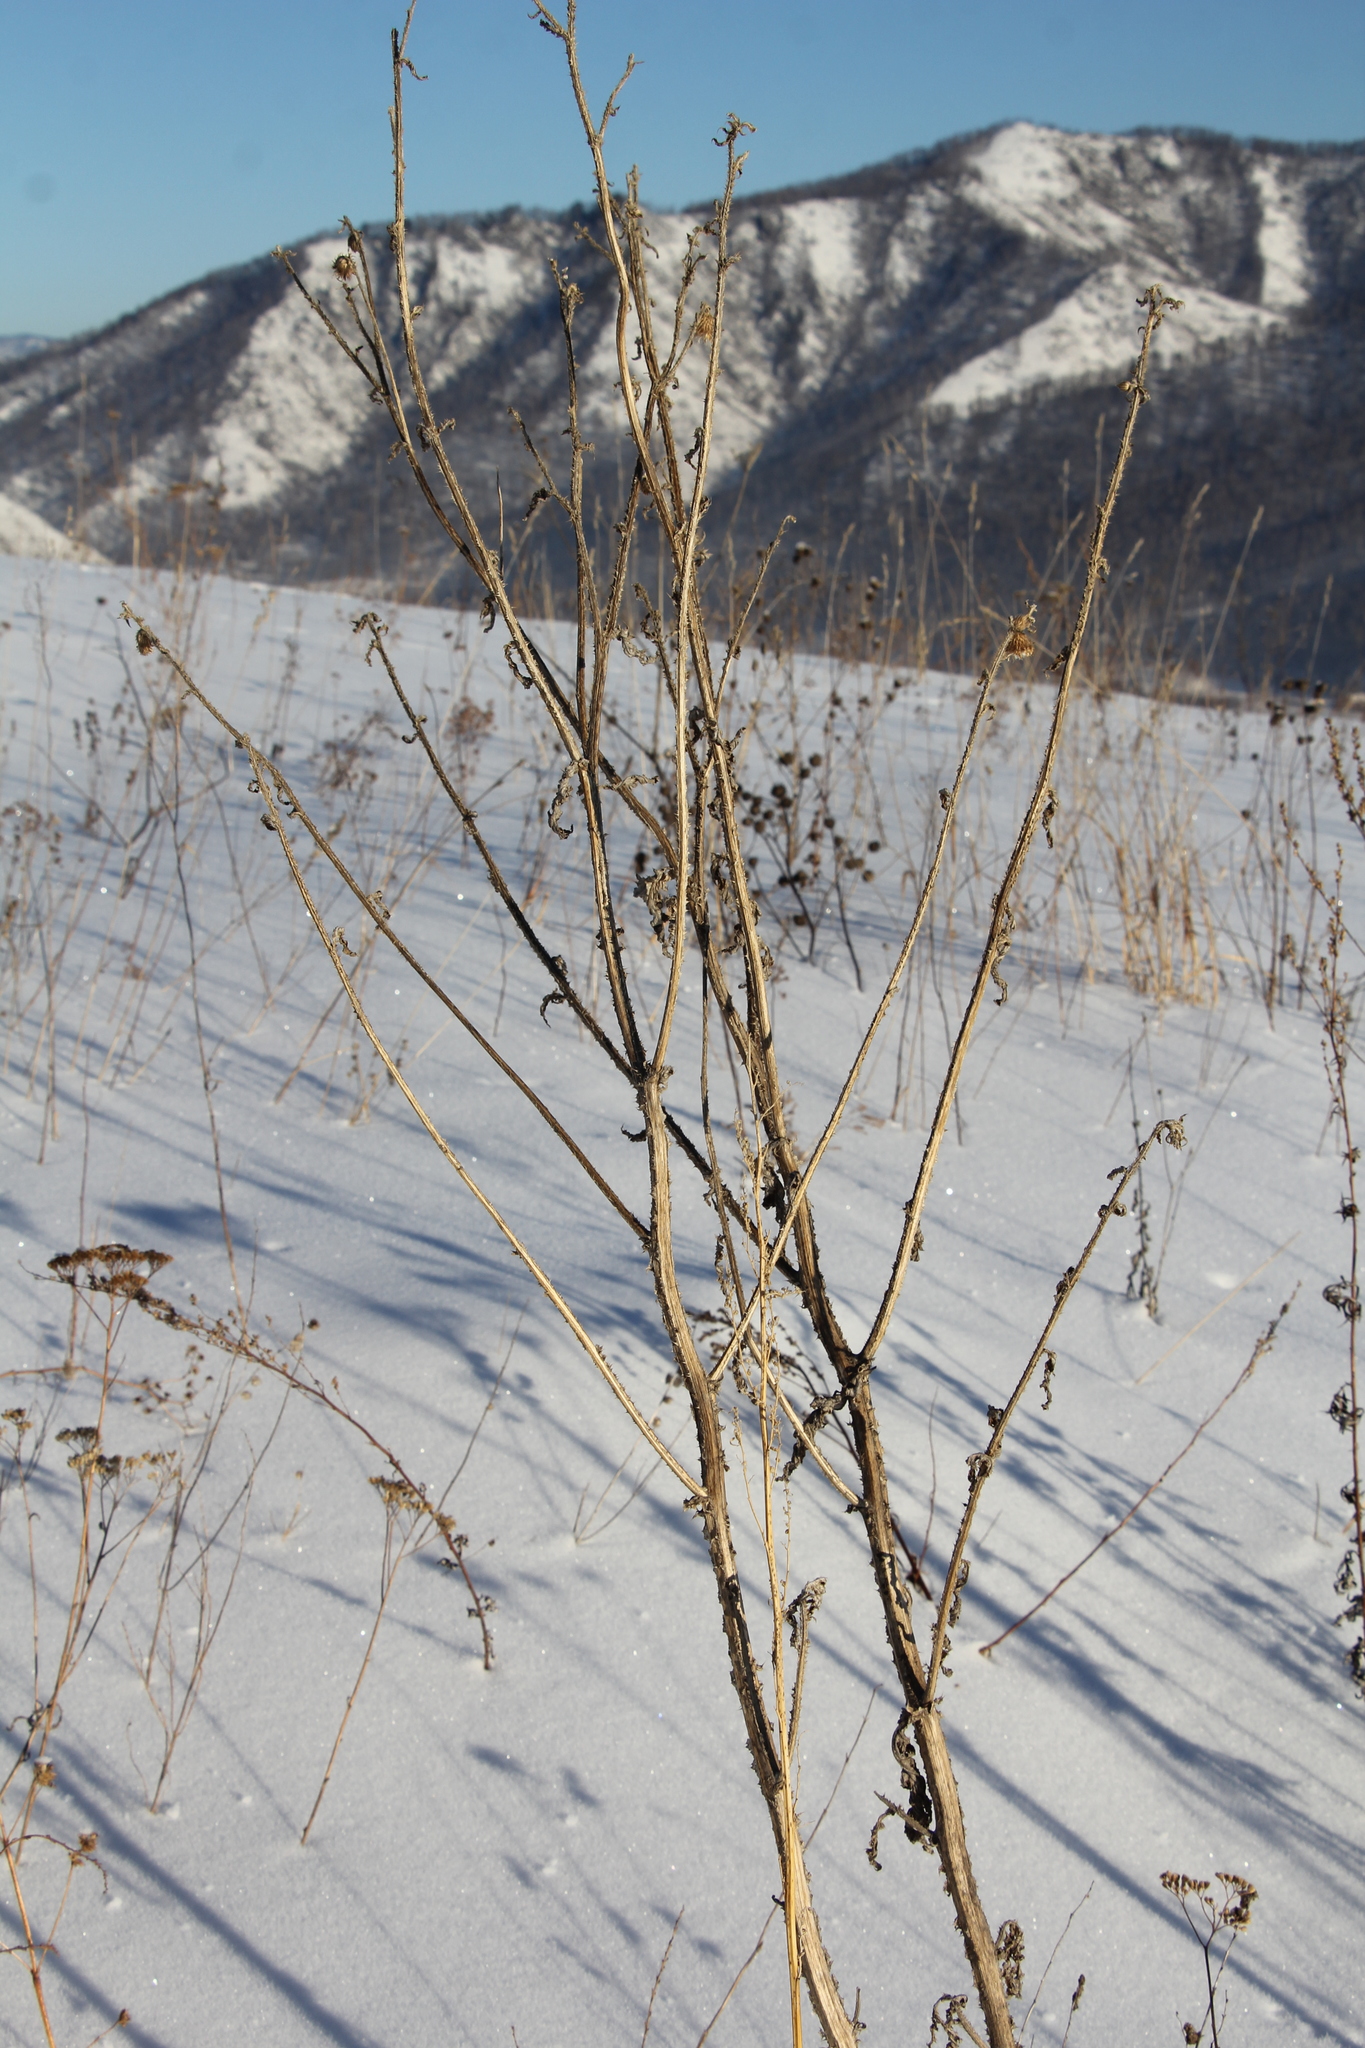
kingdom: Plantae
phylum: Tracheophyta
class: Magnoliopsida
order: Asterales
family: Asteraceae
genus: Cirsium
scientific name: Cirsium arvense
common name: Creeping thistle
